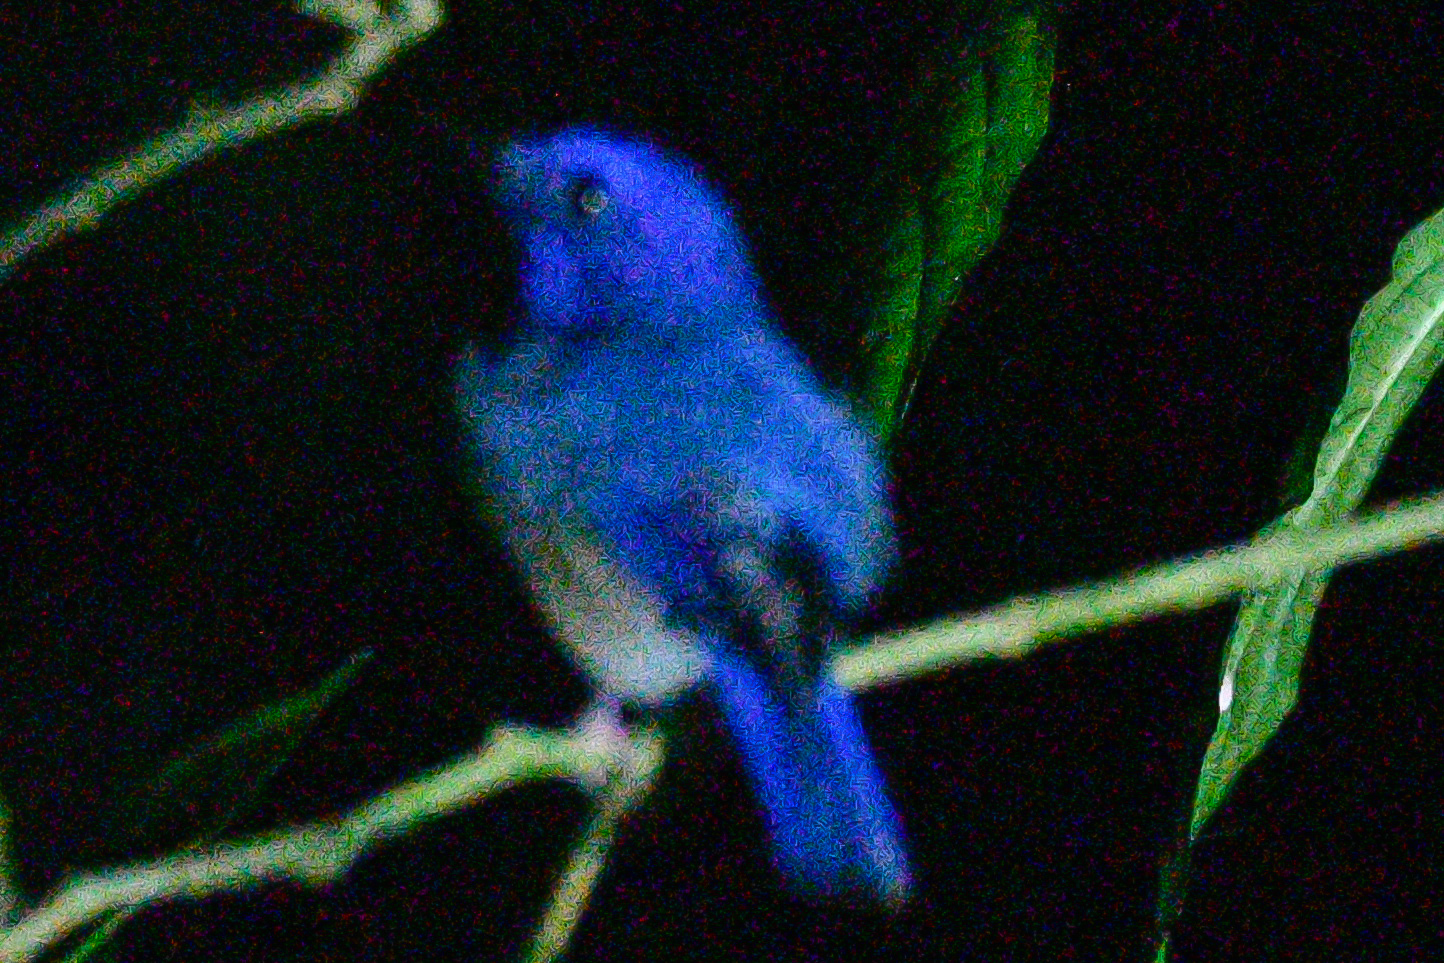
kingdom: Animalia
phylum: Chordata
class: Aves
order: Passeriformes
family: Muscicapidae
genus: Cyornis
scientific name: Cyornis turcosus
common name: Malaysian blue flycatcher
